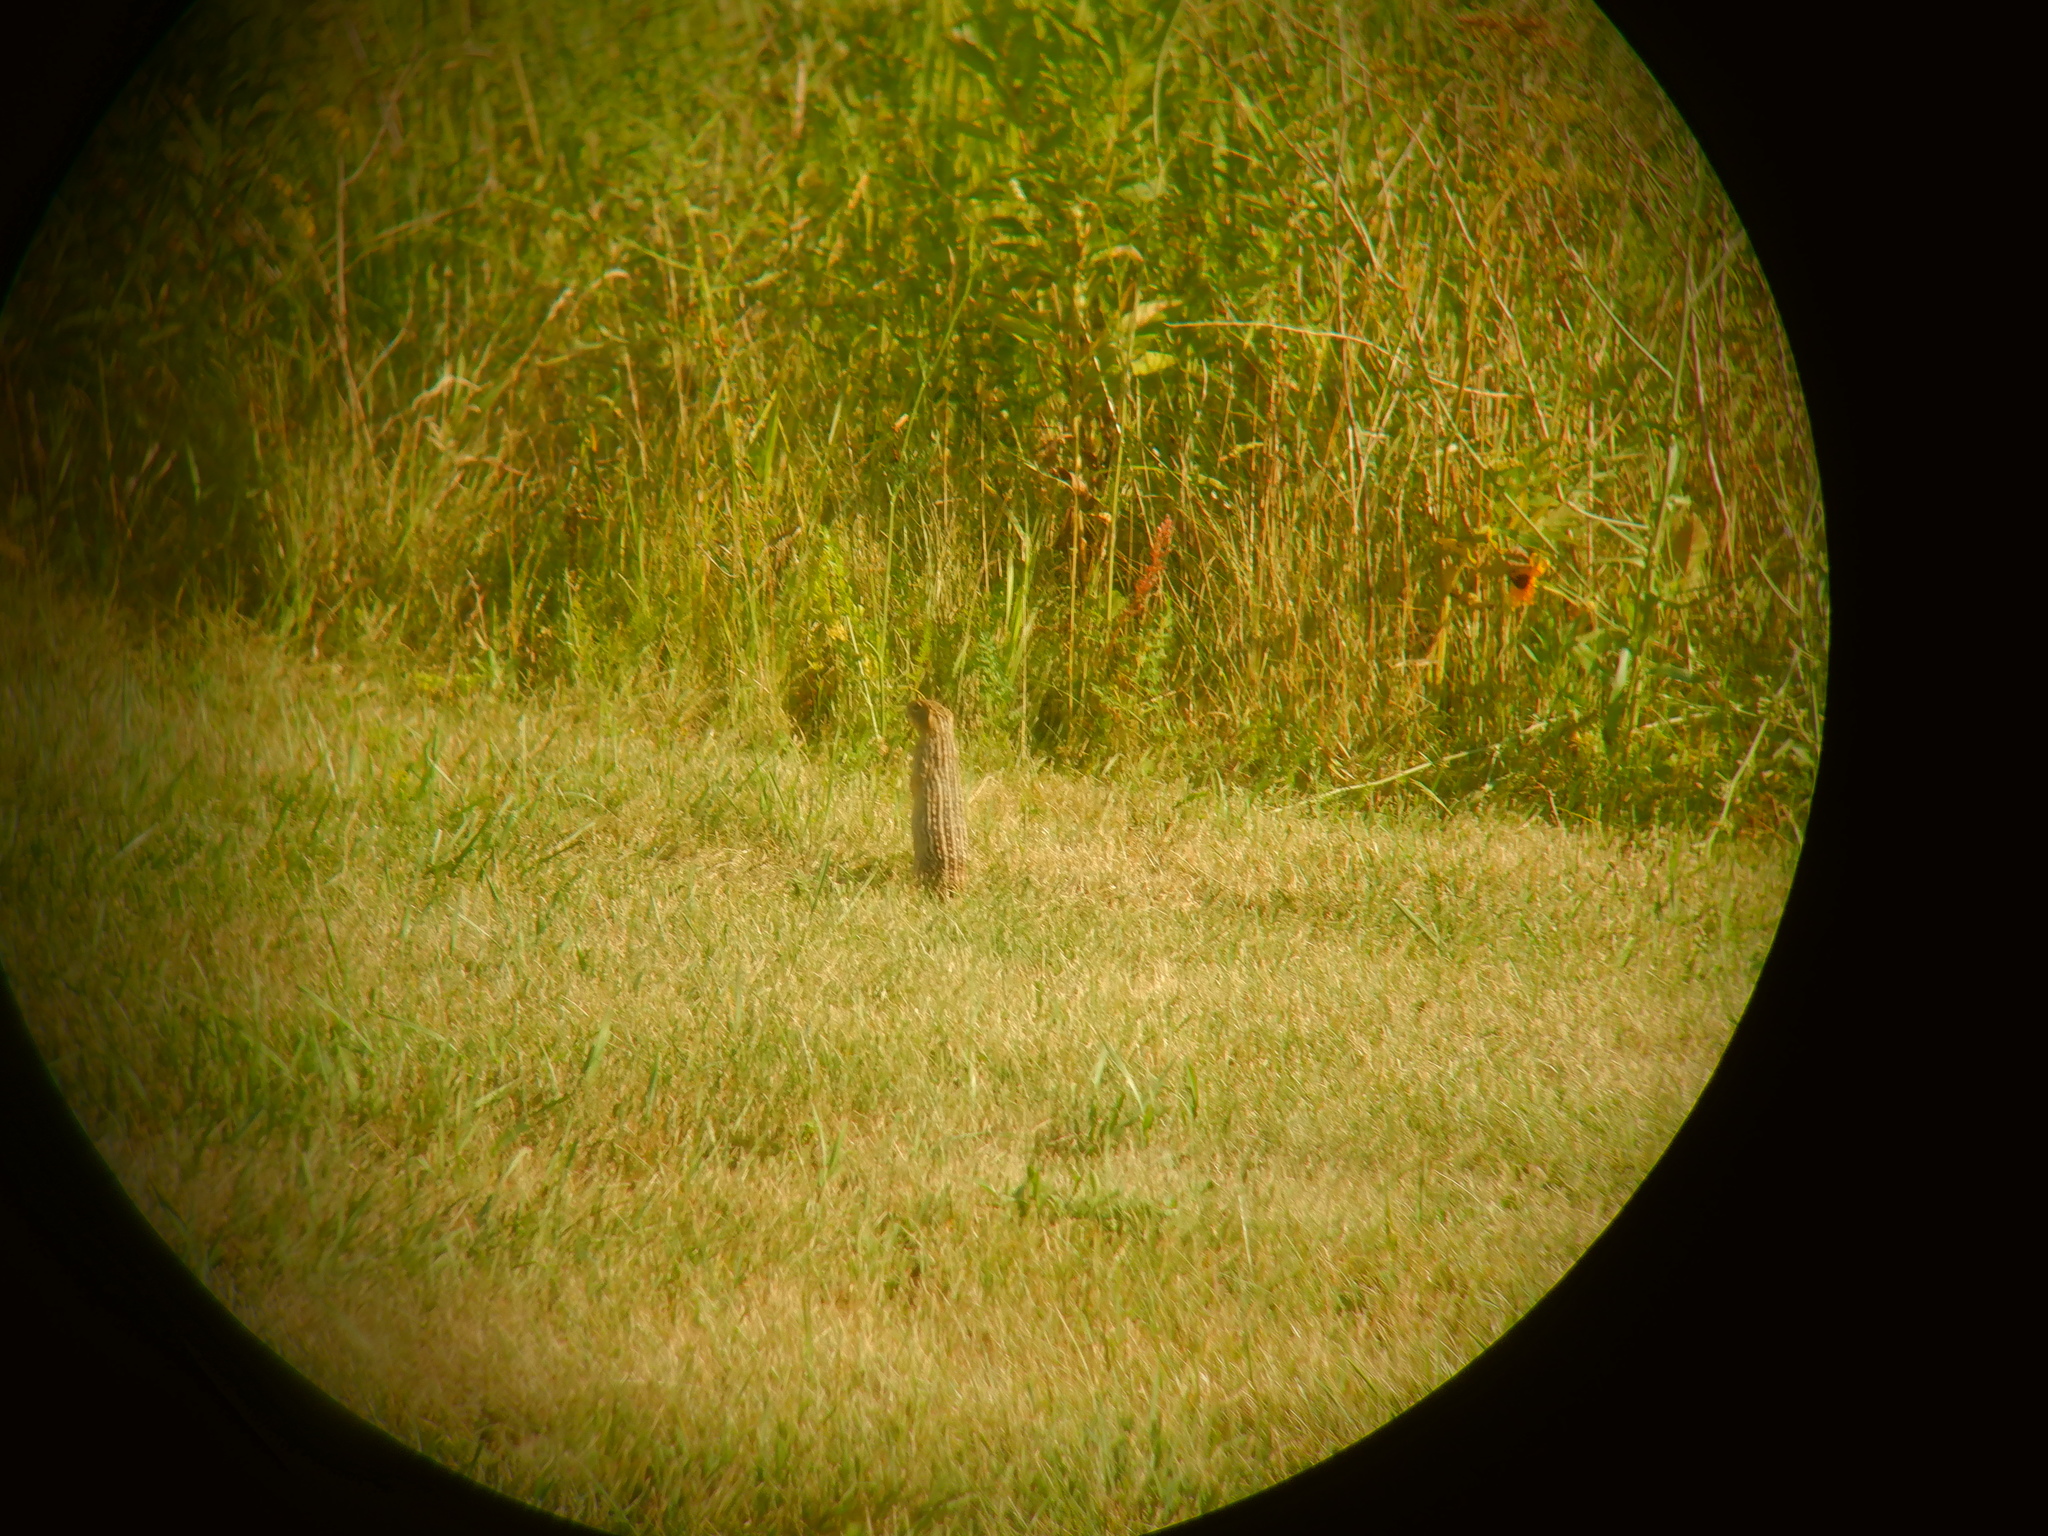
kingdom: Animalia
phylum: Chordata
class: Mammalia
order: Rodentia
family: Sciuridae
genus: Ictidomys
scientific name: Ictidomys tridecemlineatus
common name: Thirteen-lined ground squirrel
